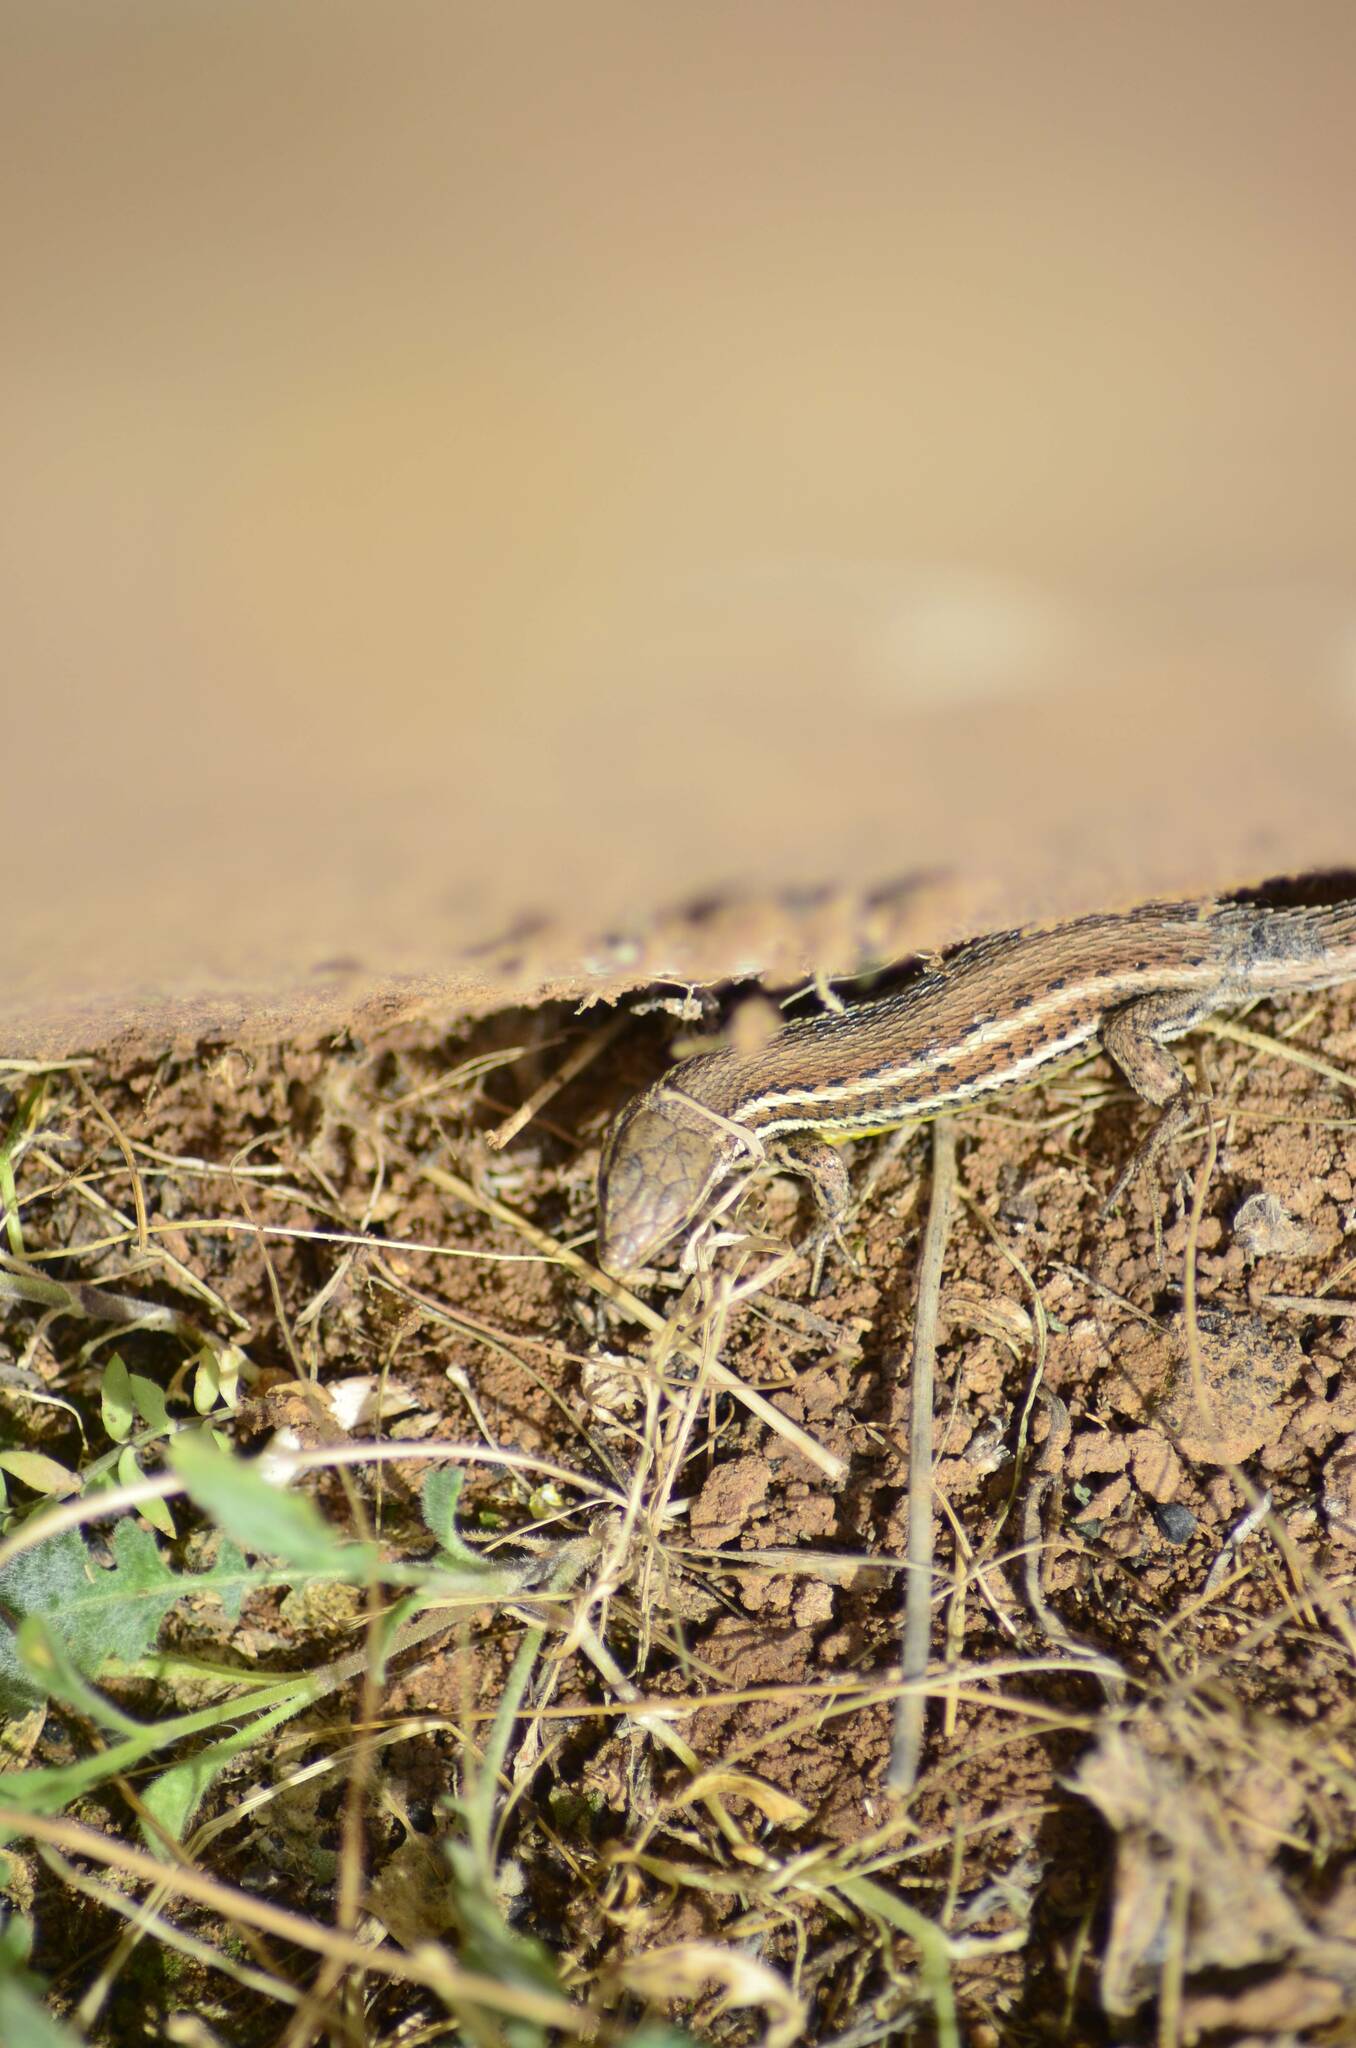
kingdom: Animalia
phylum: Chordata
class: Squamata
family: Lacertidae
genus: Psammodromus
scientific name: Psammodromus blanci
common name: Blank's psammodromus
